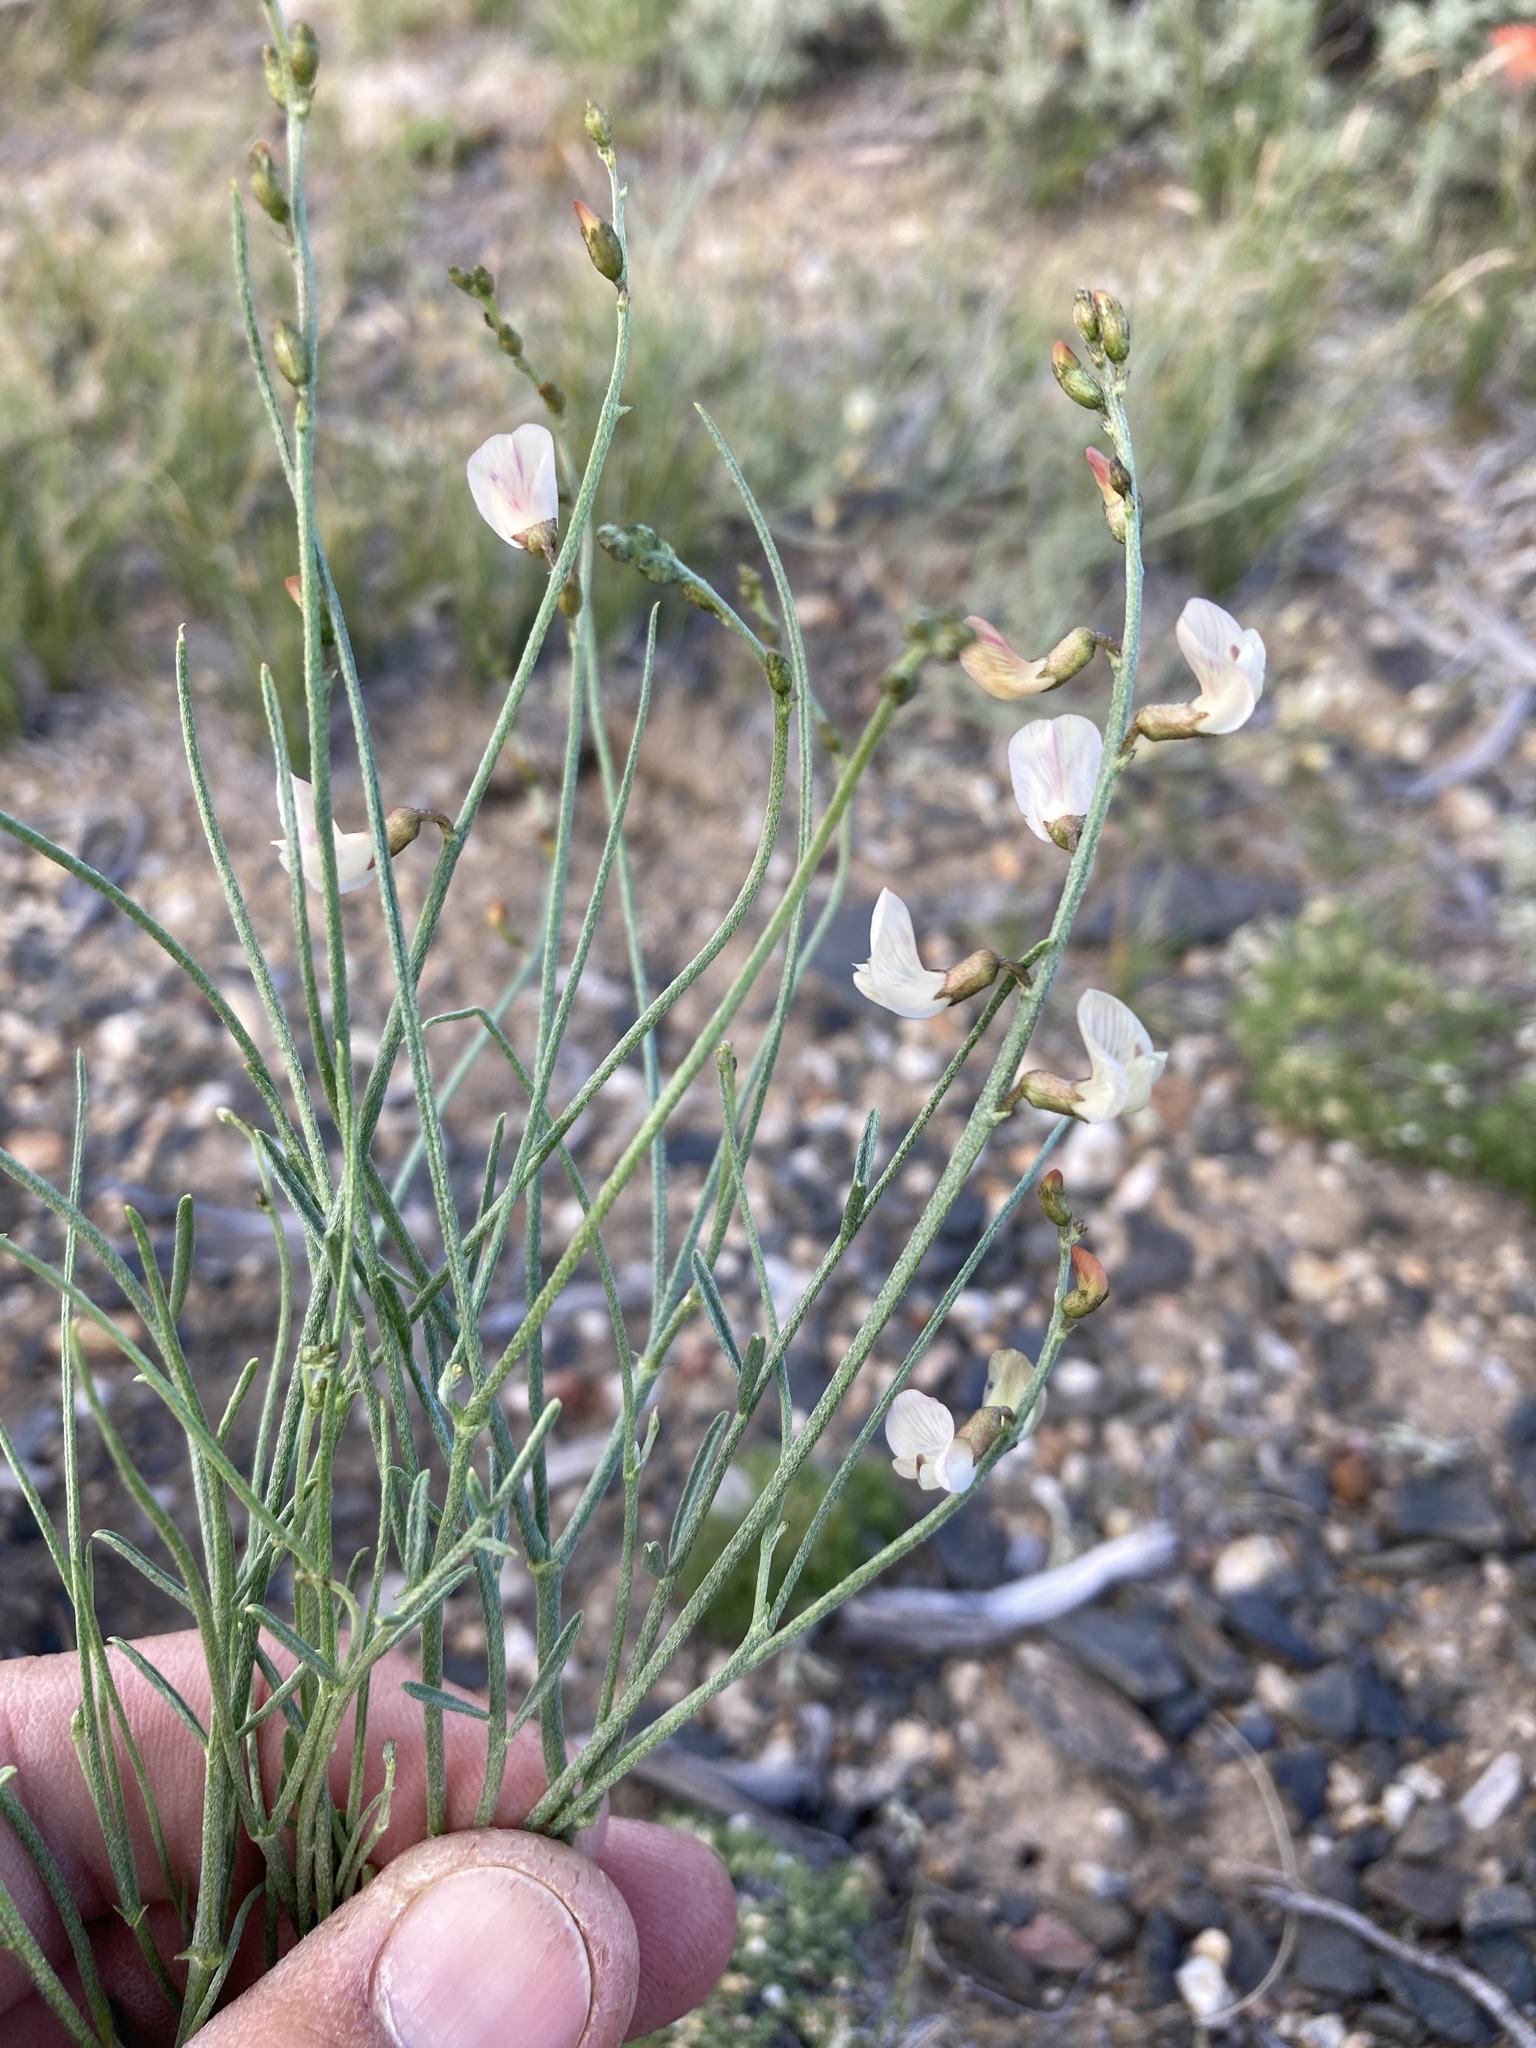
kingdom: Plantae
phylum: Tracheophyta
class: Magnoliopsida
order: Fabales
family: Fabaceae
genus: Astragalus
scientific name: Astragalus convallarius
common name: Lesser rushy milk-vetch
